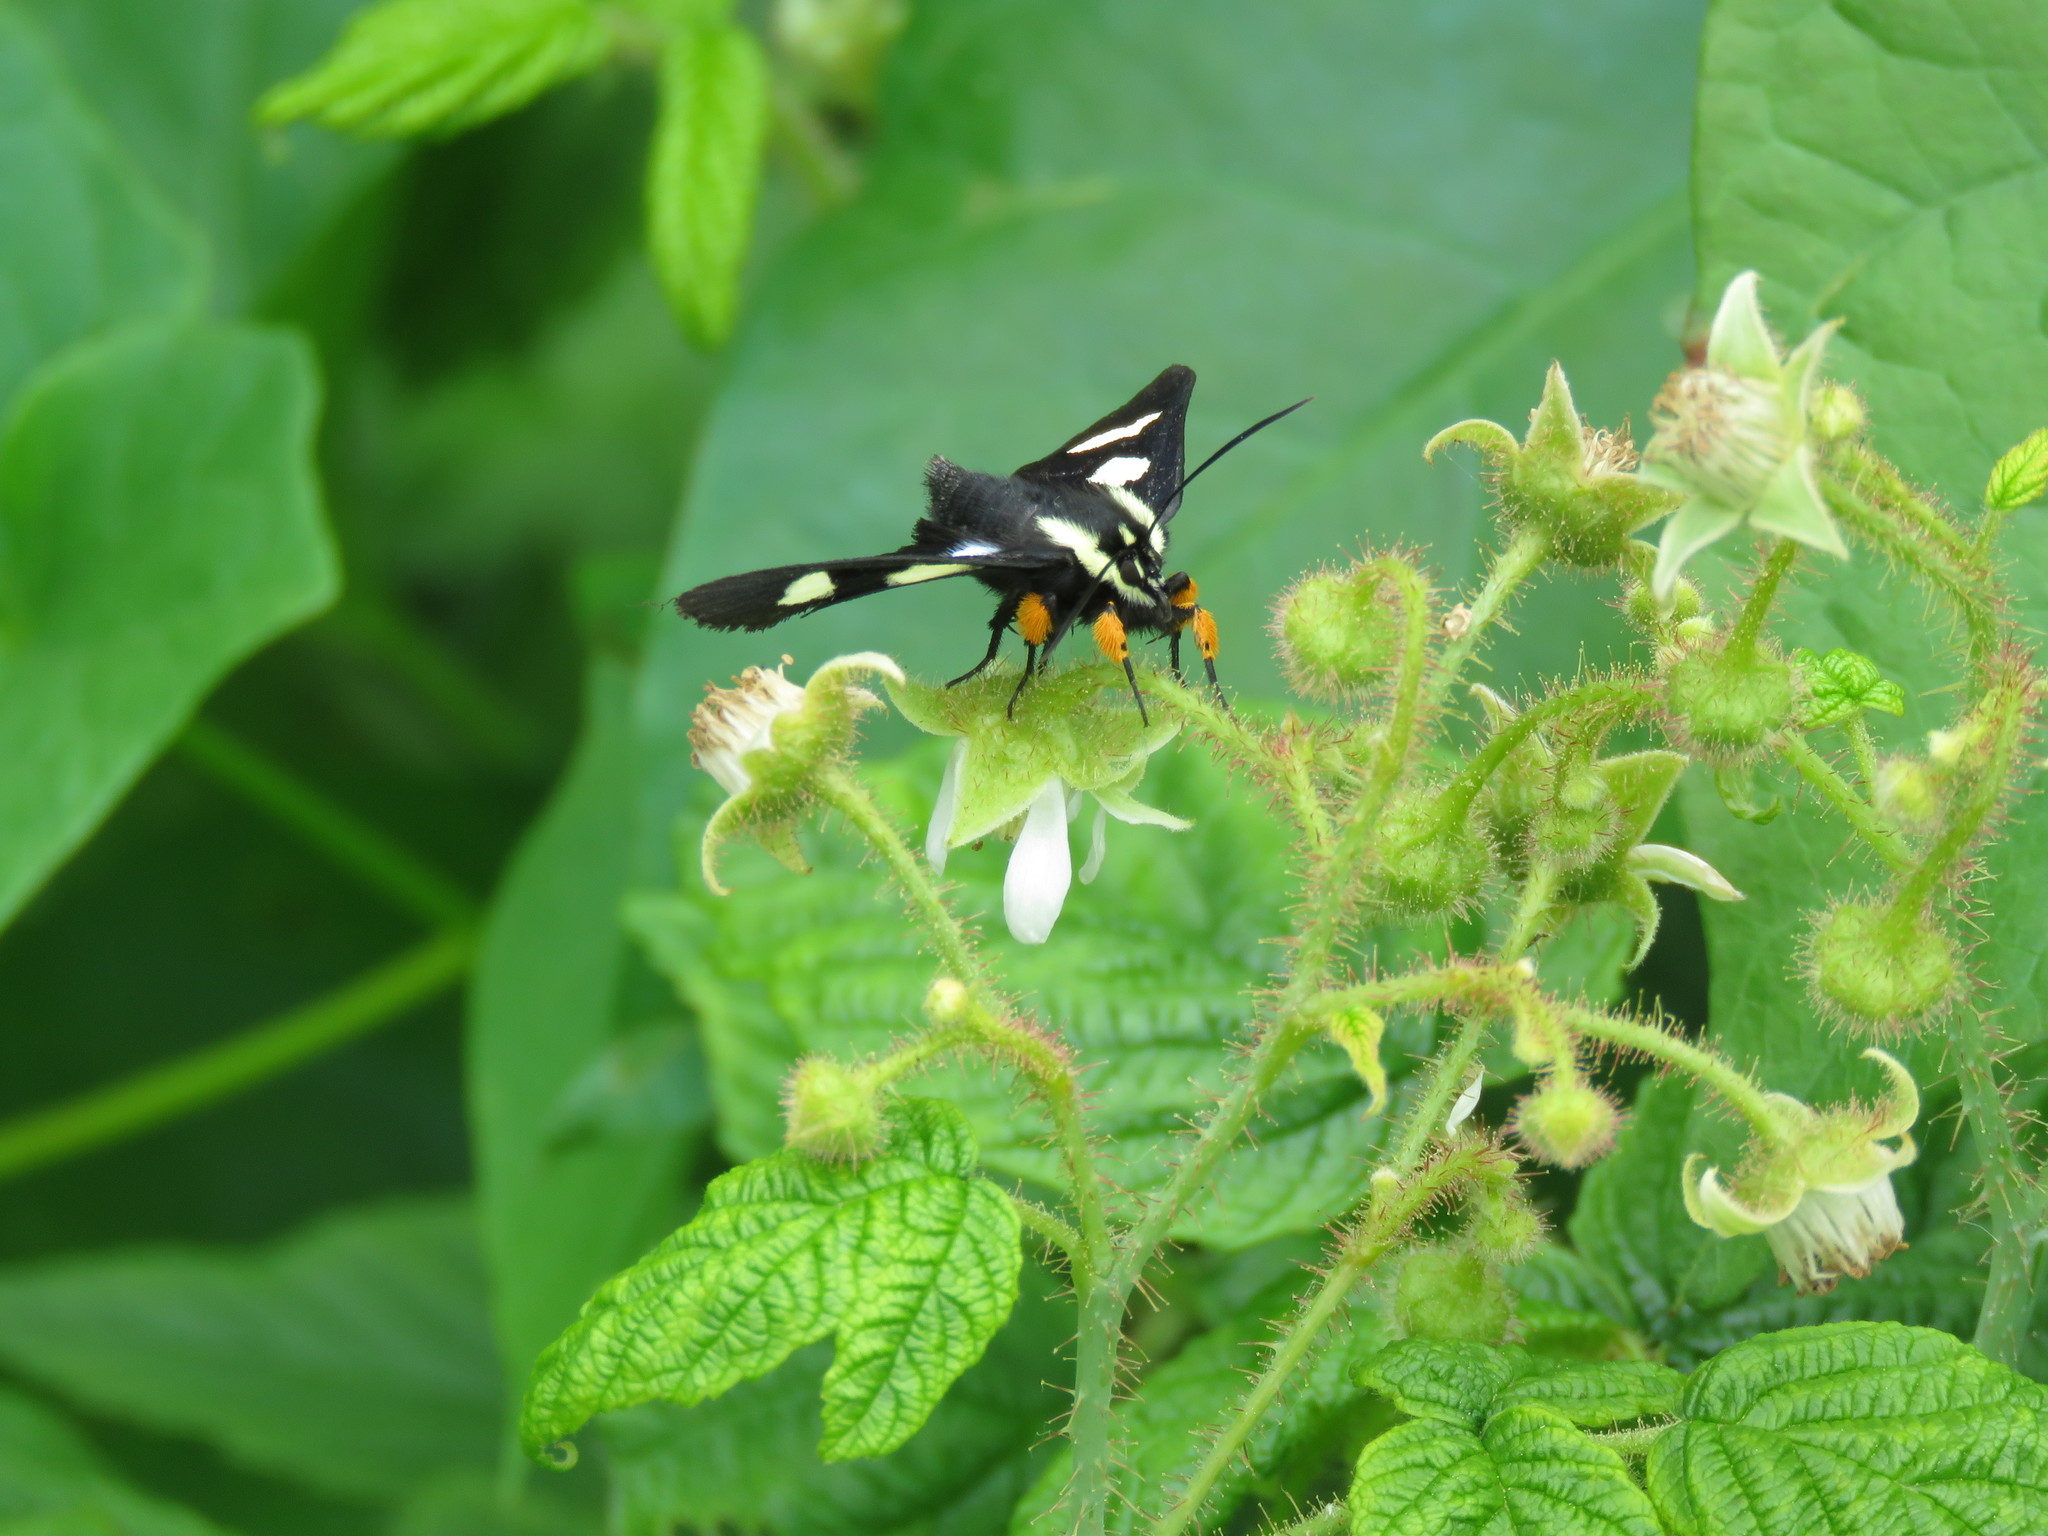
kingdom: Animalia
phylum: Arthropoda
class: Insecta
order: Lepidoptera
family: Noctuidae
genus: Alypia
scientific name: Alypia octomaculata
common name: Eight-spotted forester
